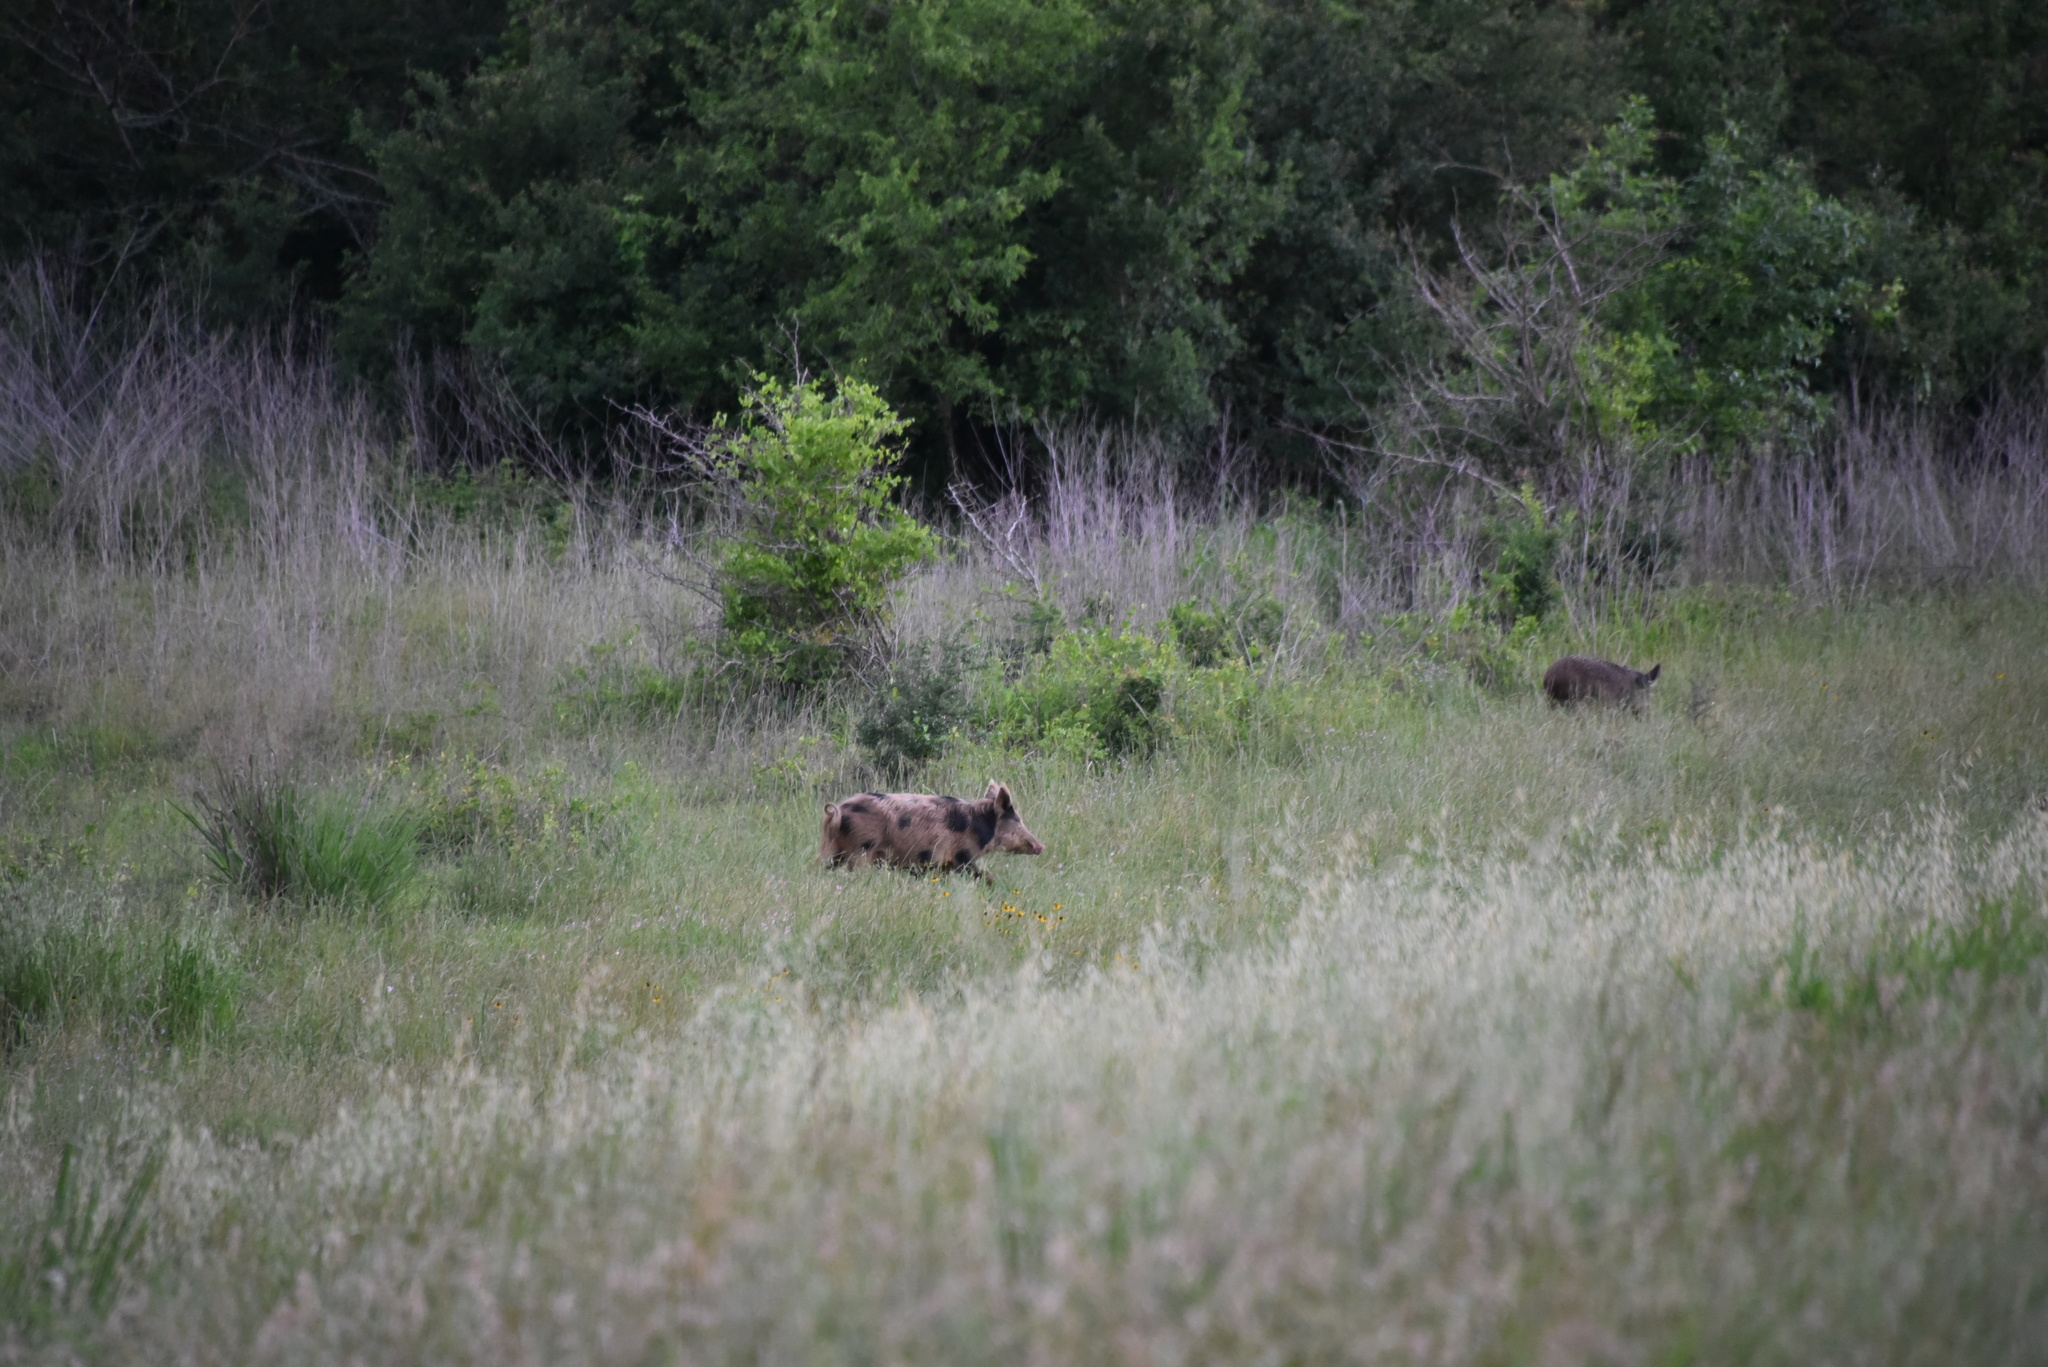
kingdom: Animalia
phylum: Chordata
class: Mammalia
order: Artiodactyla
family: Suidae
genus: Sus
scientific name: Sus scrofa
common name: Wild boar
